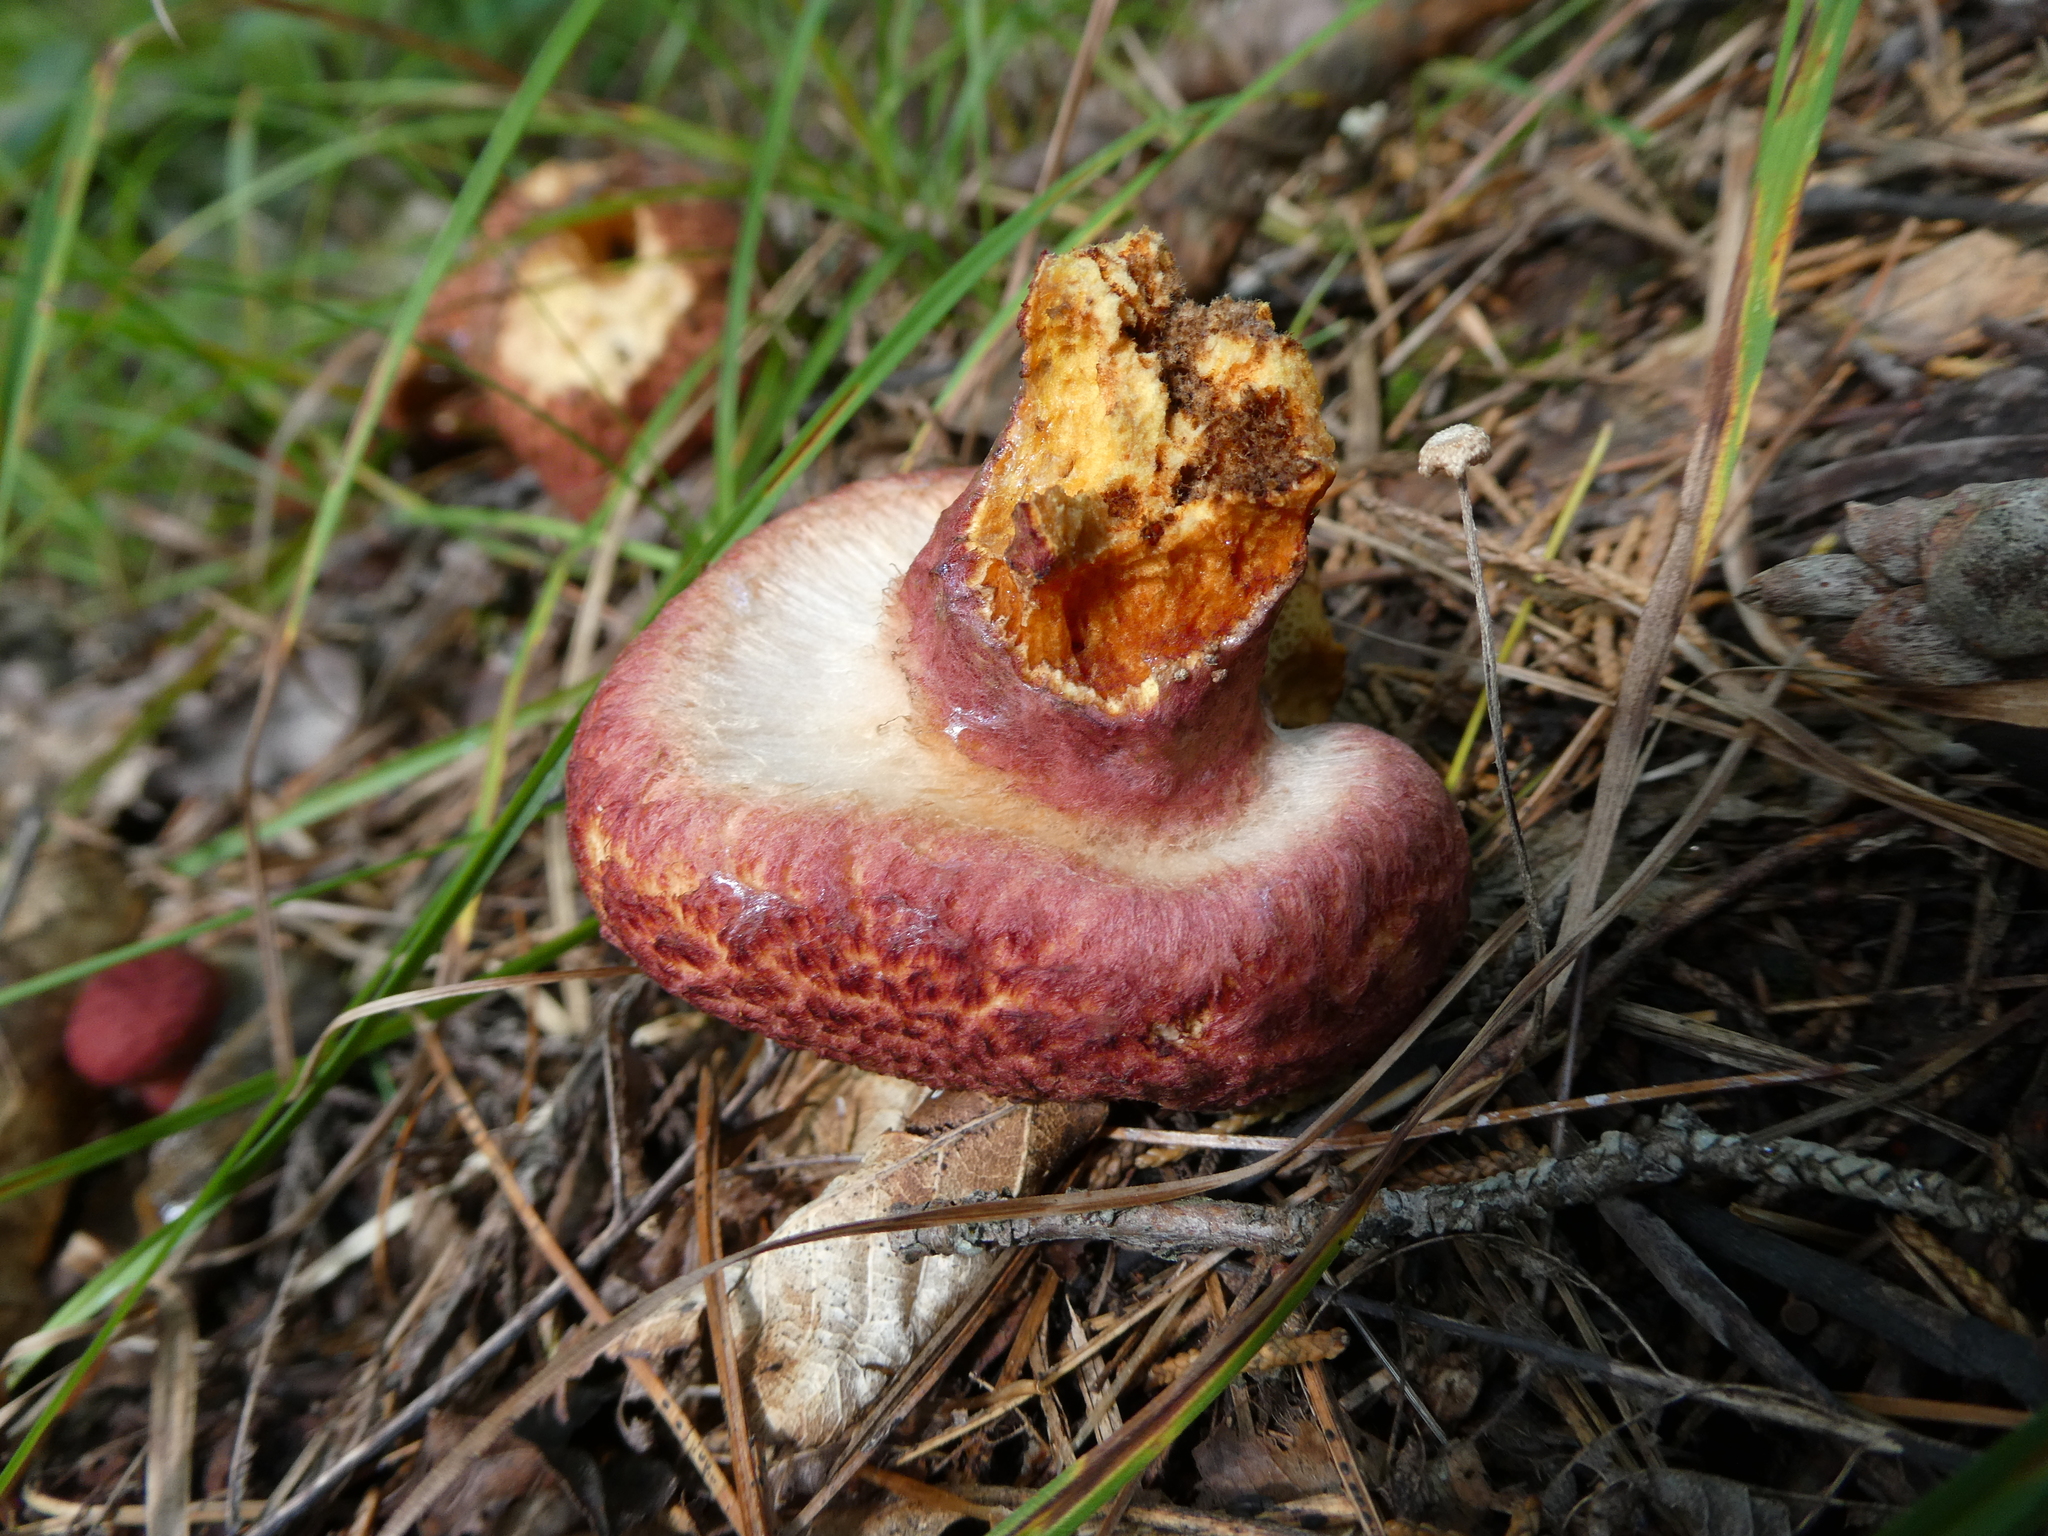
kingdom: Fungi
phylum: Basidiomycota
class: Agaricomycetes
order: Boletales
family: Suillaceae
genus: Suillus
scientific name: Suillus spraguei
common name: Painted suillus
